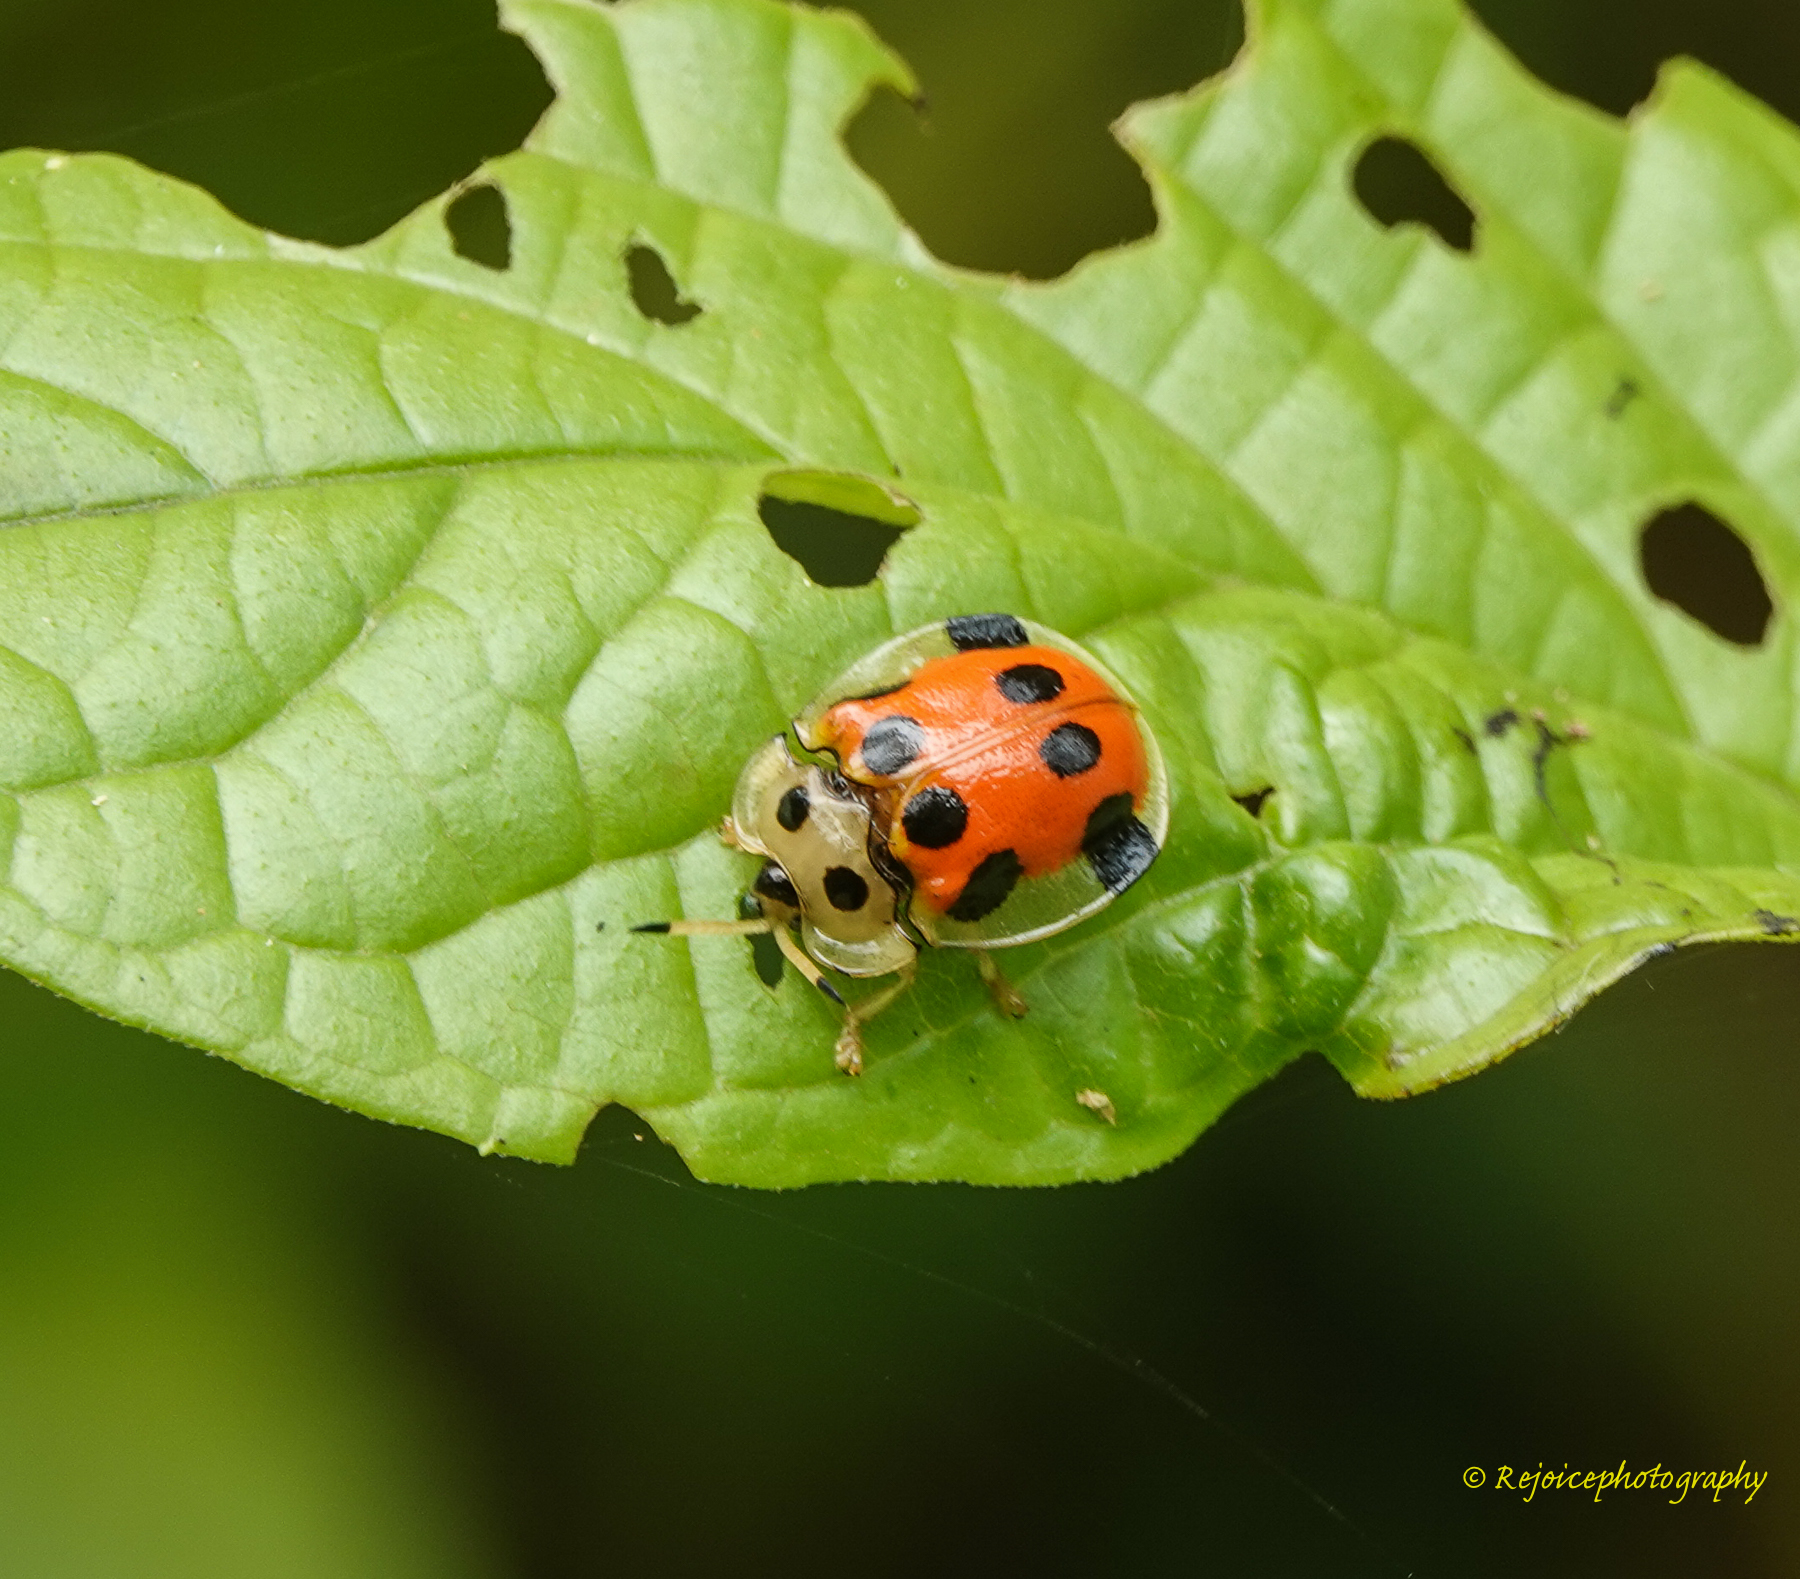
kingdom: Animalia
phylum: Arthropoda
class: Insecta
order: Coleoptera
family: Chrysomelidae
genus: Basiprionota
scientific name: Basiprionota decemmaculata
